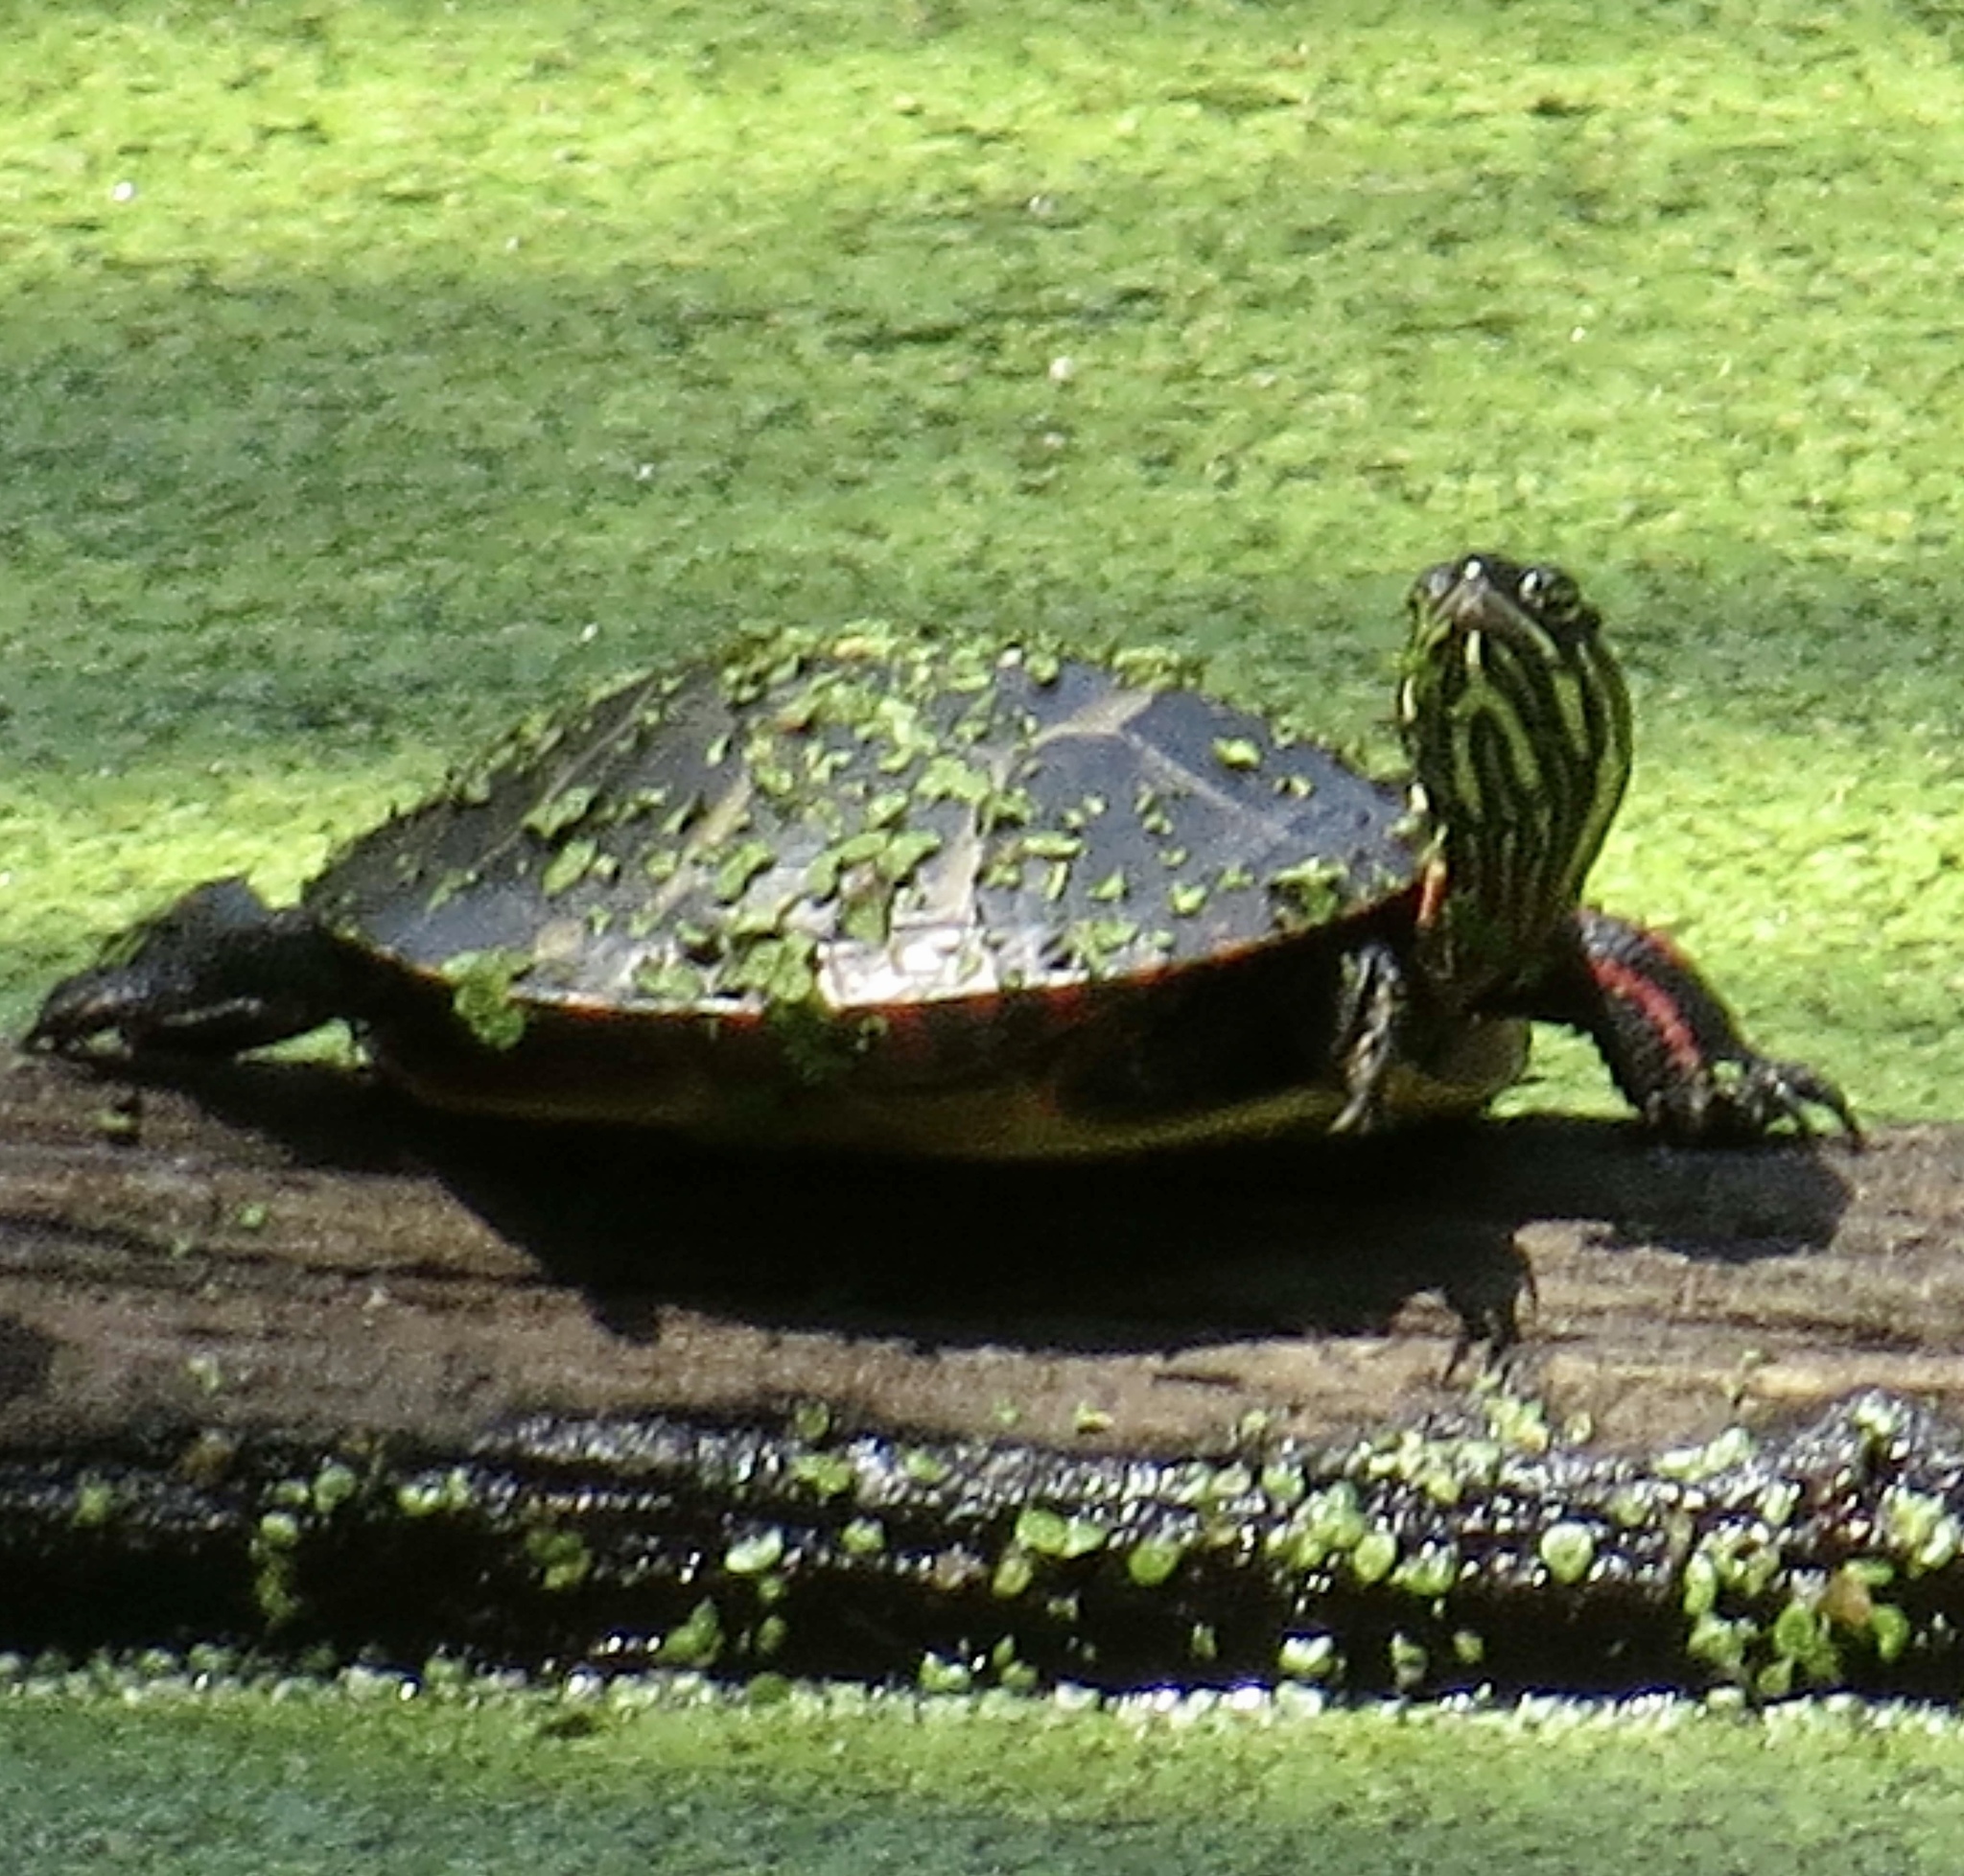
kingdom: Animalia
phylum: Chordata
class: Testudines
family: Emydidae
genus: Chrysemys
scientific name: Chrysemys picta
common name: Painted turtle
